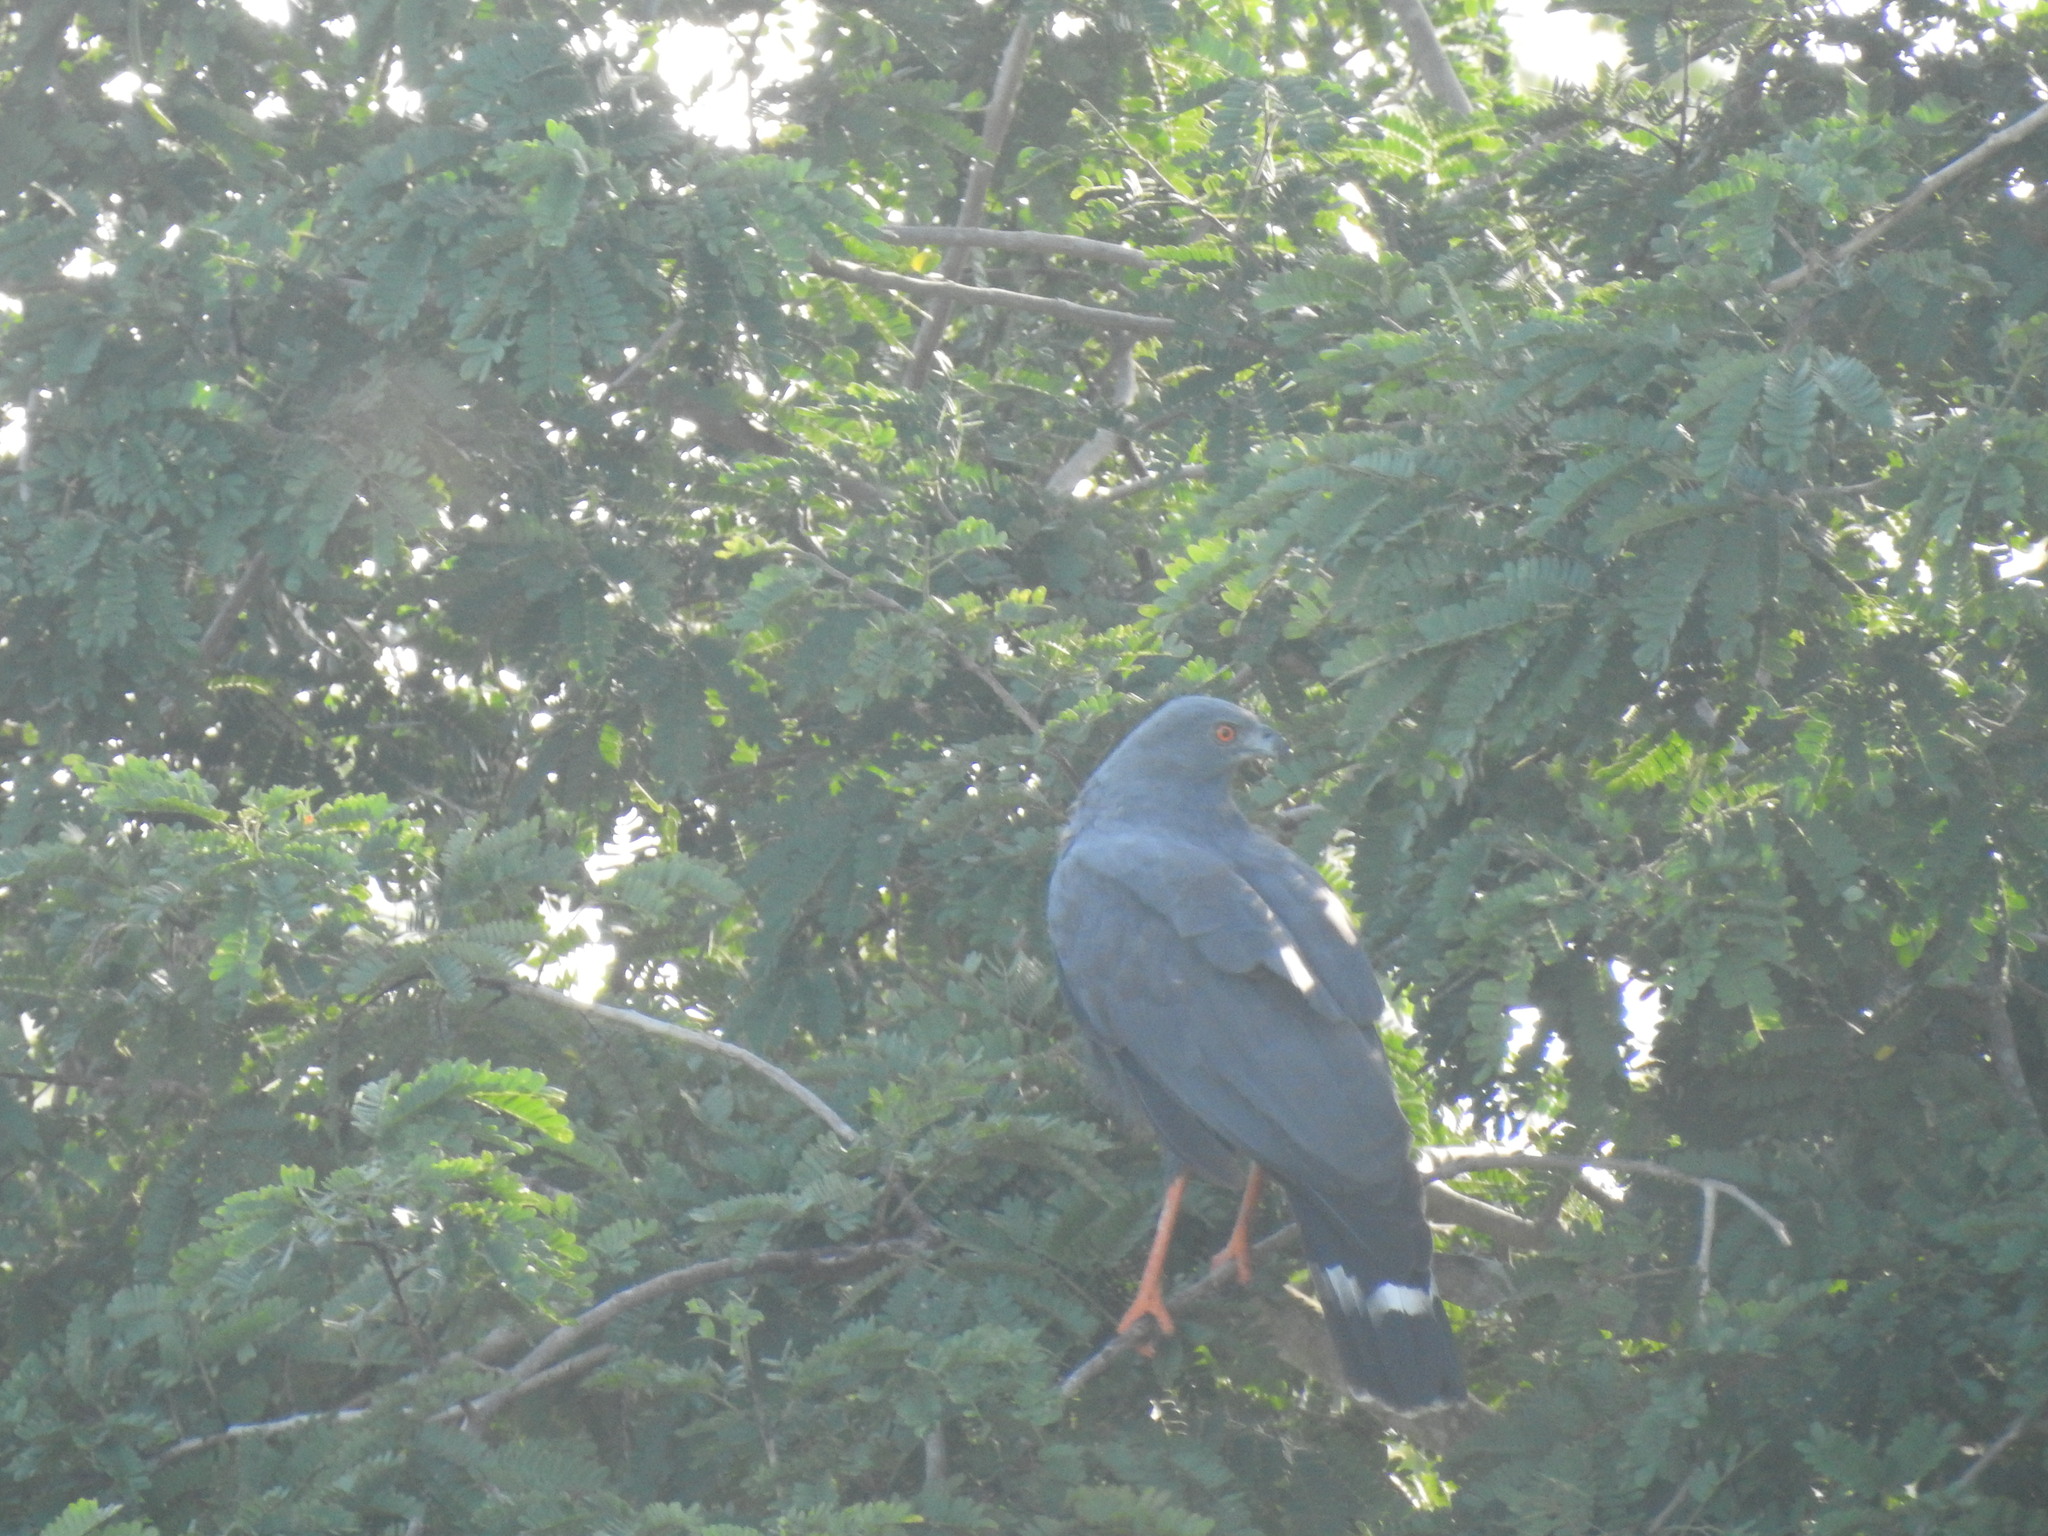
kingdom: Animalia
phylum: Chordata
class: Aves
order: Accipitriformes
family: Accipitridae
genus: Geranospiza
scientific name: Geranospiza caerulescens
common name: Crane hawk
